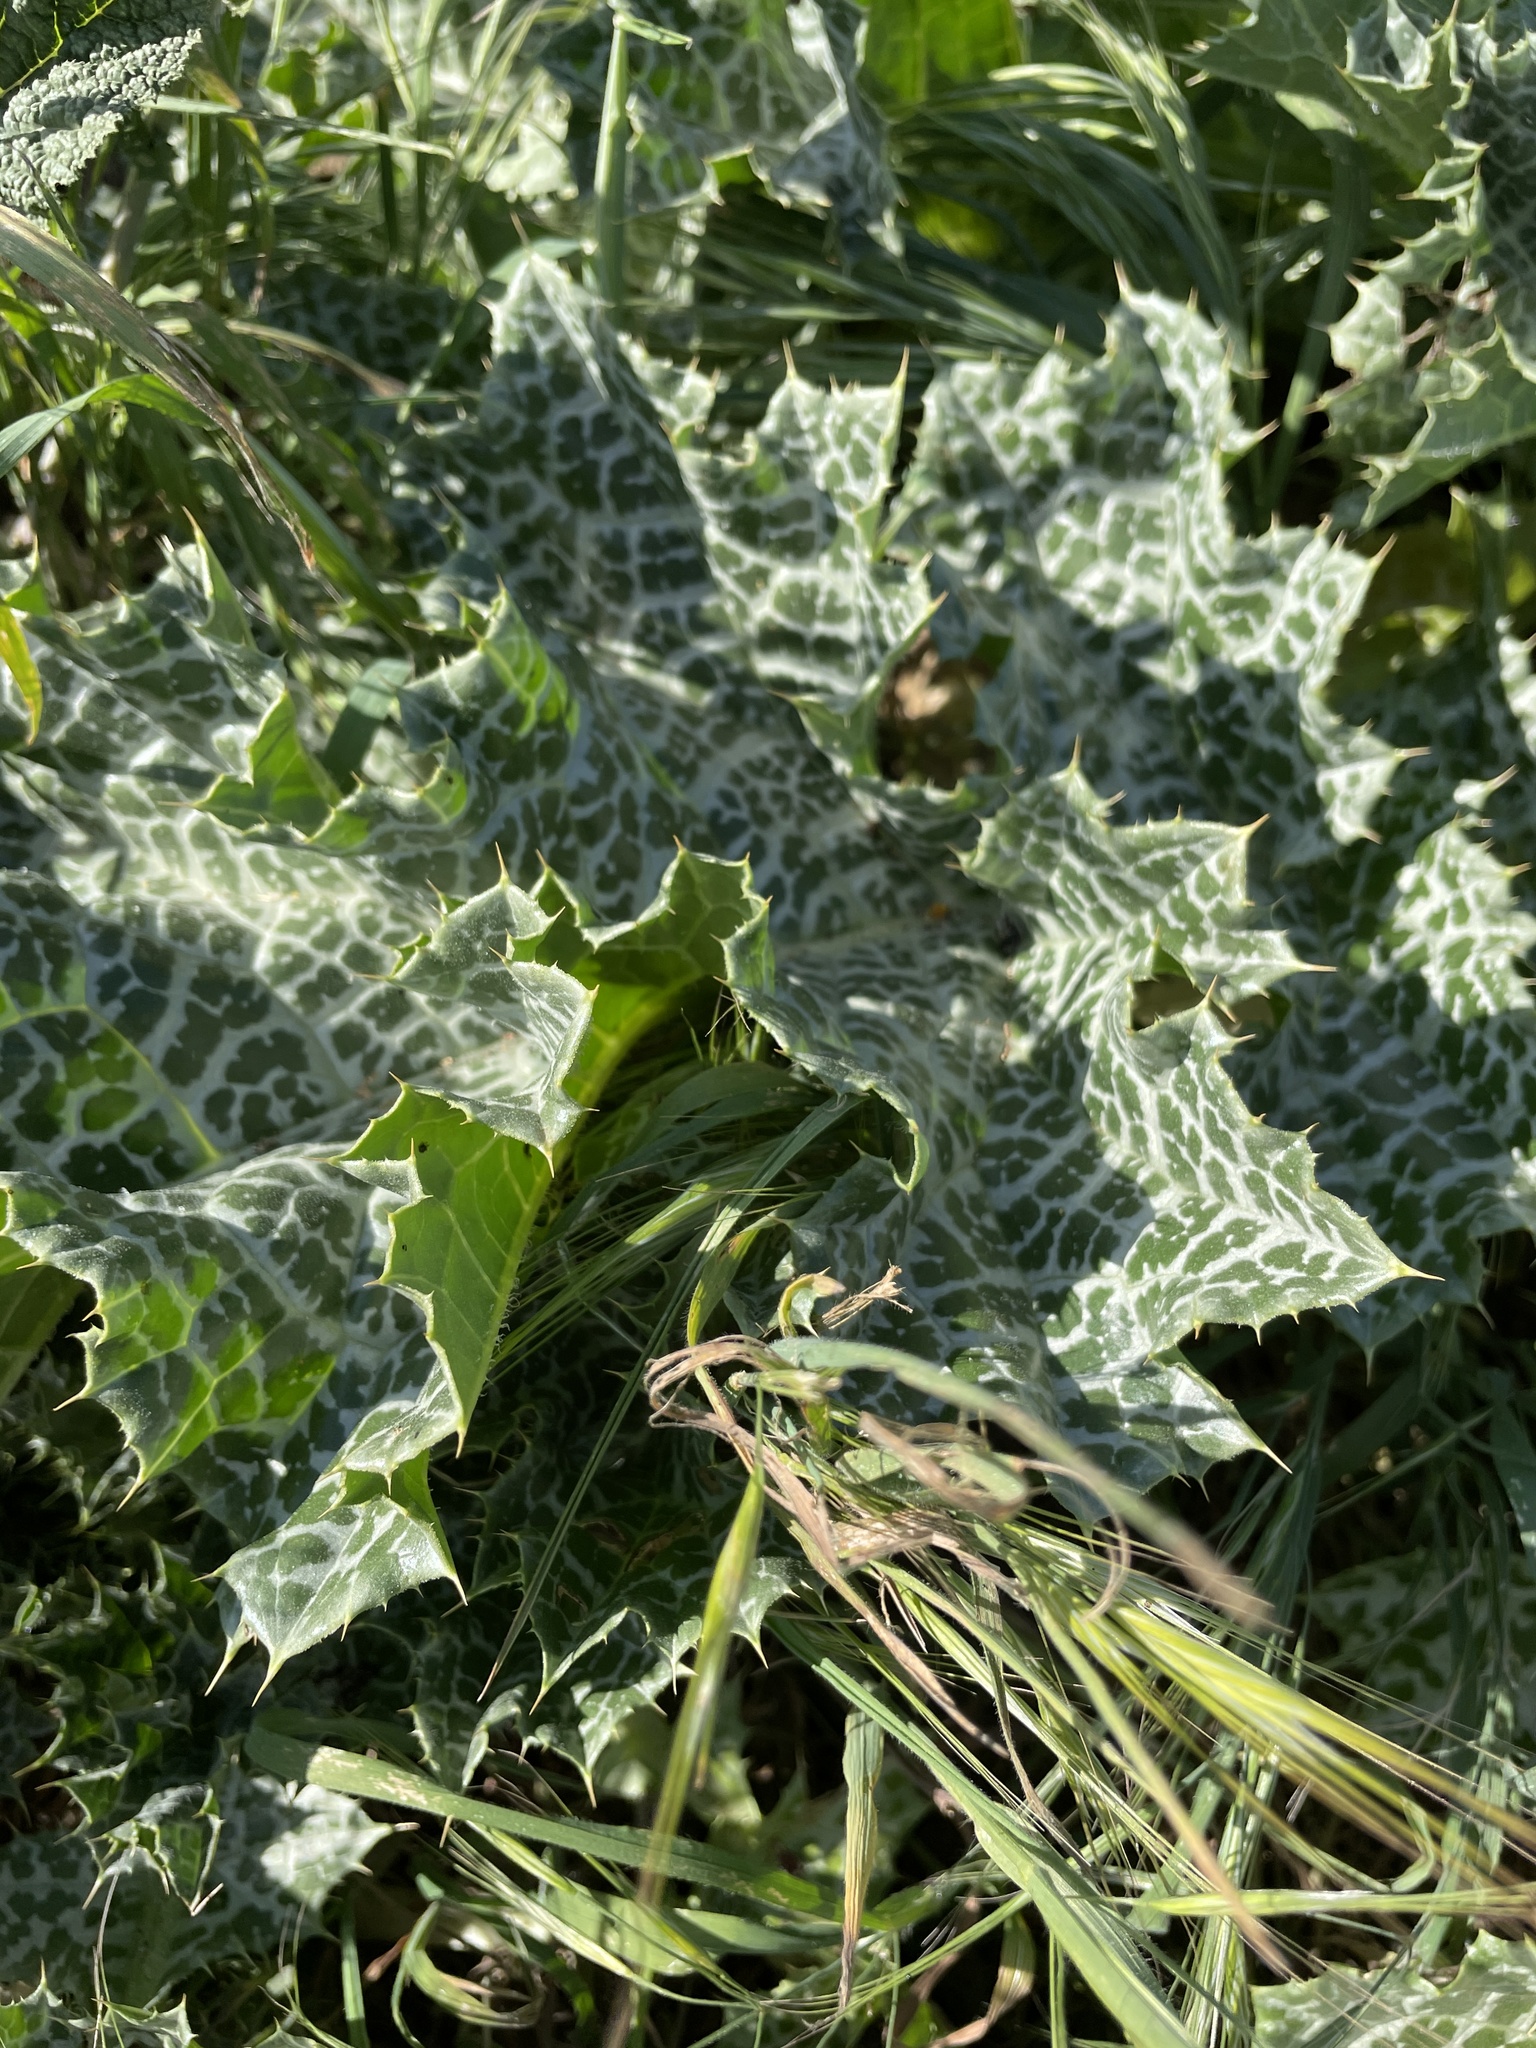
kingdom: Plantae
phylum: Tracheophyta
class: Magnoliopsida
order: Asterales
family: Asteraceae
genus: Silybum
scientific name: Silybum marianum
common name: Milk thistle
